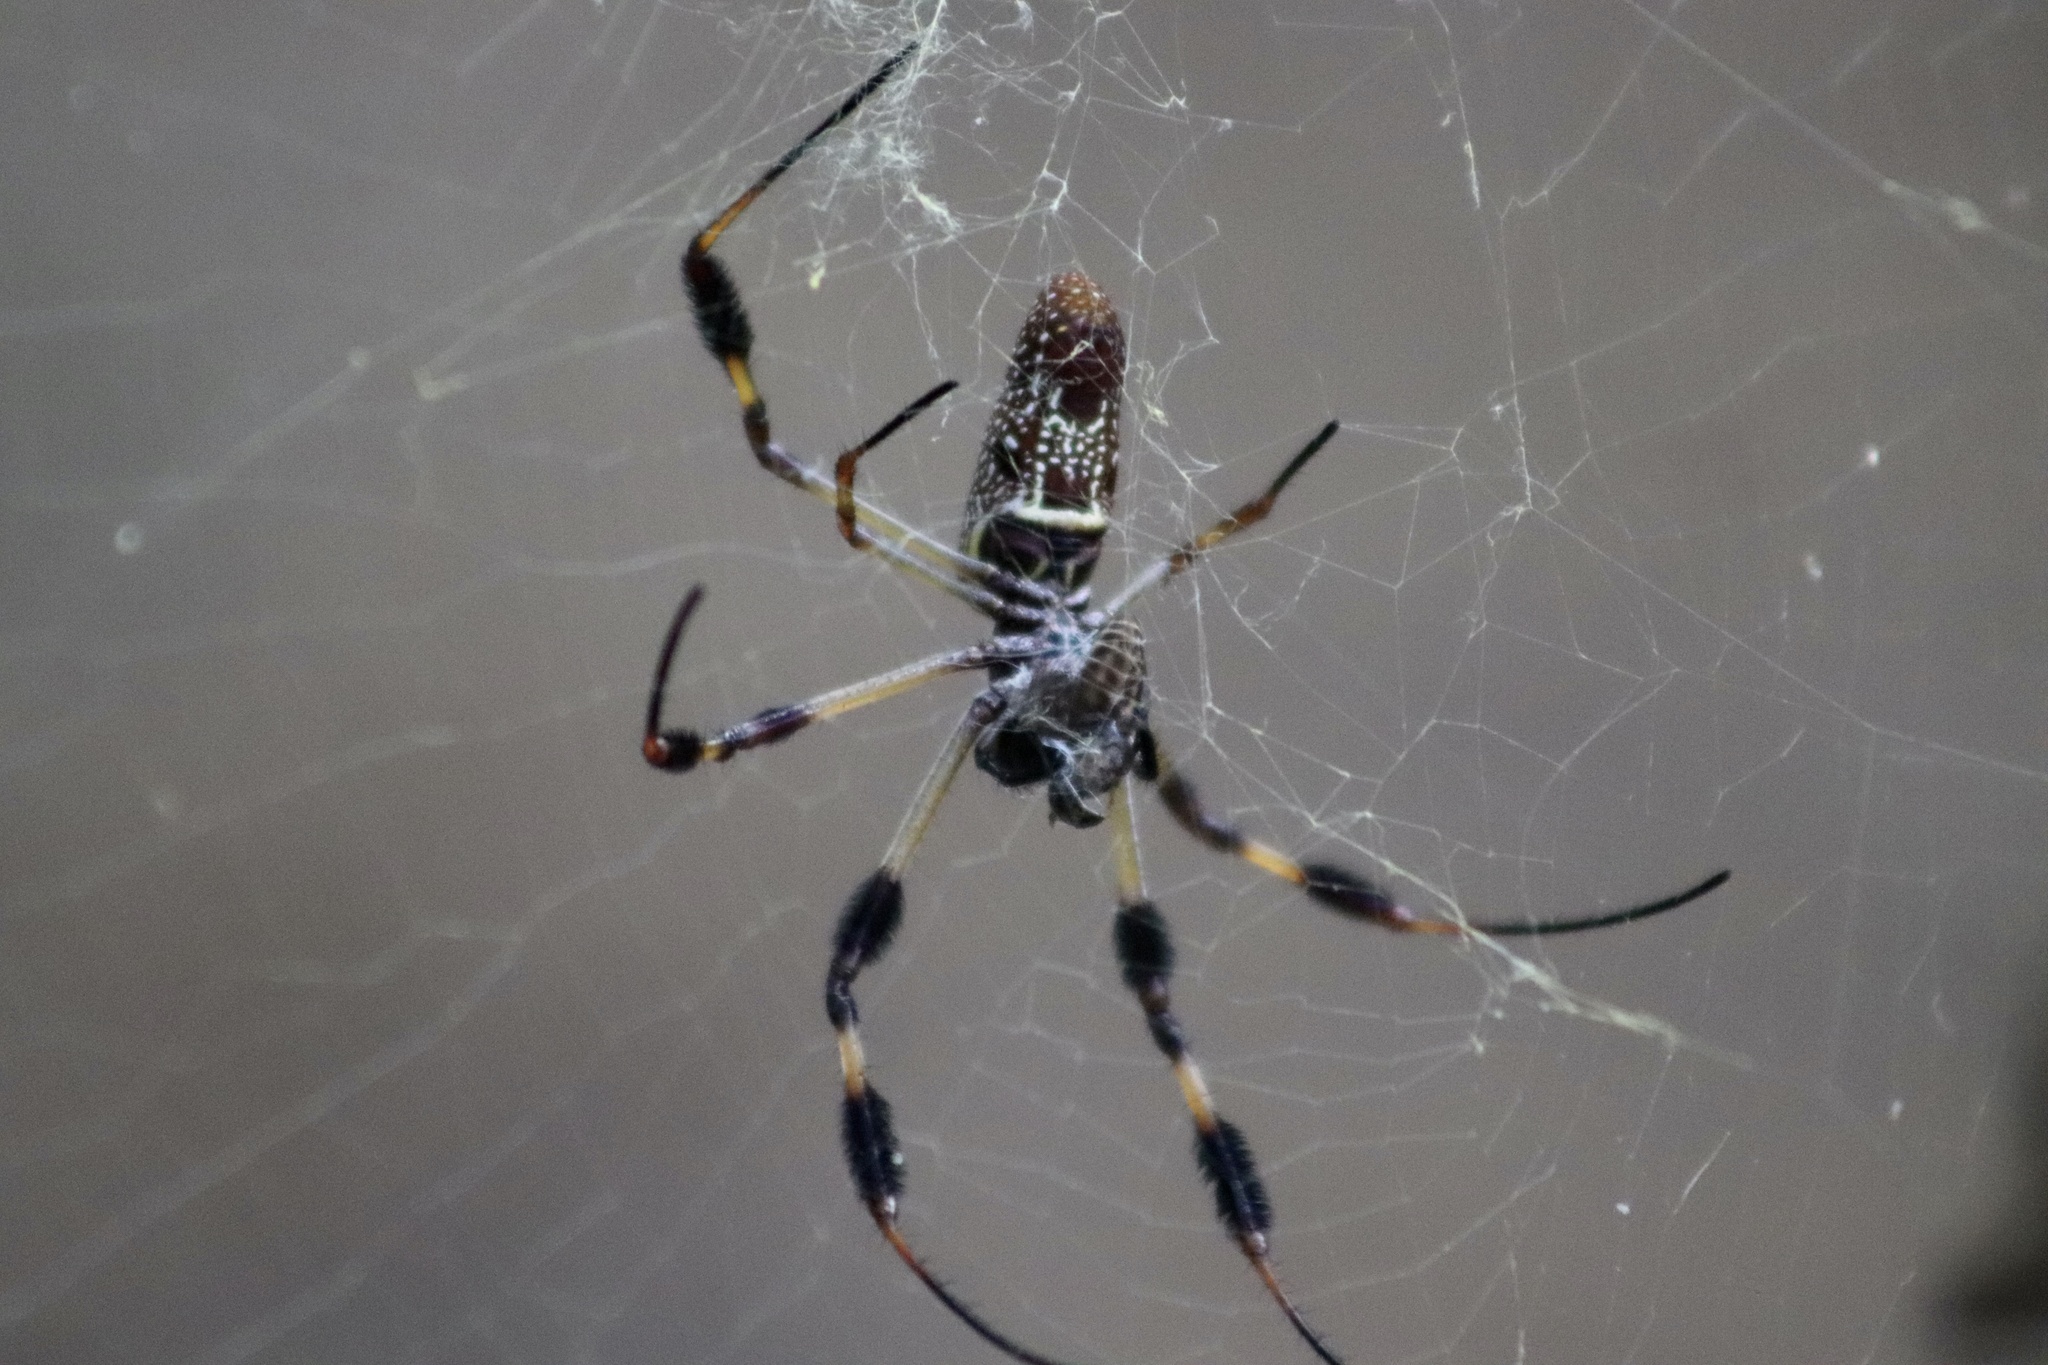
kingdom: Animalia
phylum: Arthropoda
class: Arachnida
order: Araneae
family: Araneidae
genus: Trichonephila
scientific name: Trichonephila clavipes
